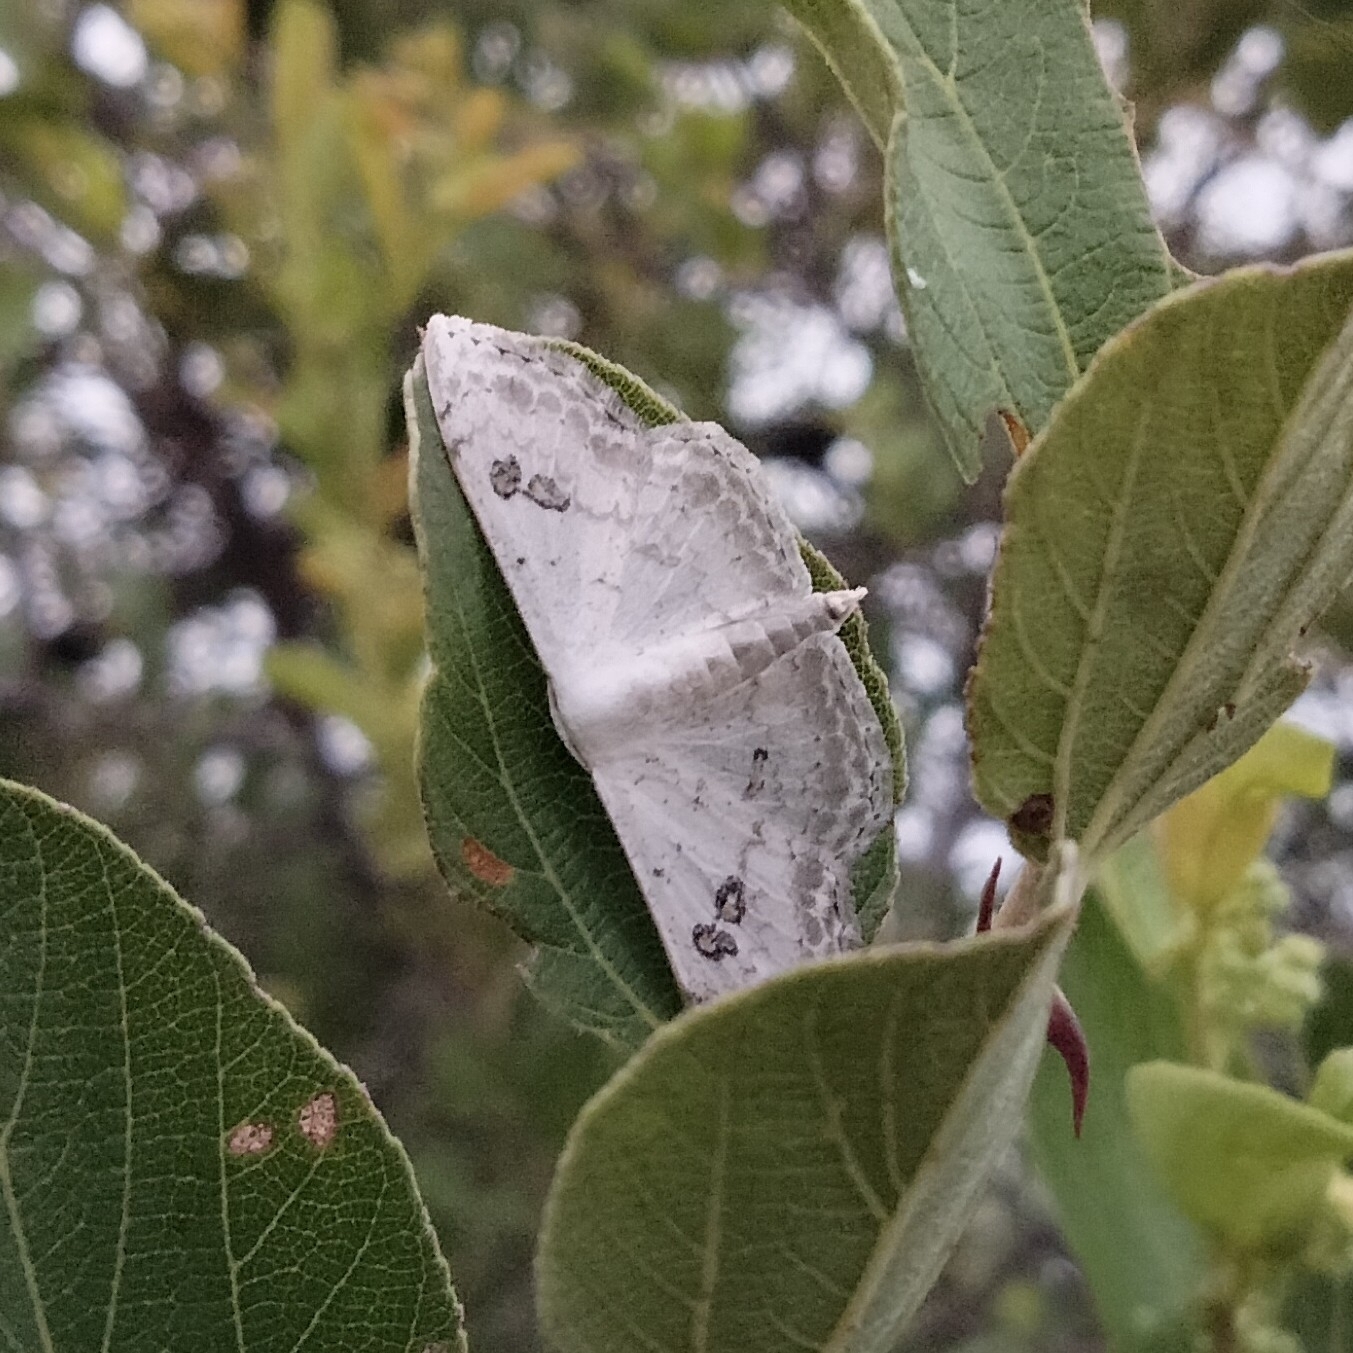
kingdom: Animalia
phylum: Arthropoda
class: Insecta
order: Lepidoptera
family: Geometridae
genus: Somatina
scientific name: Somatina omicraria
